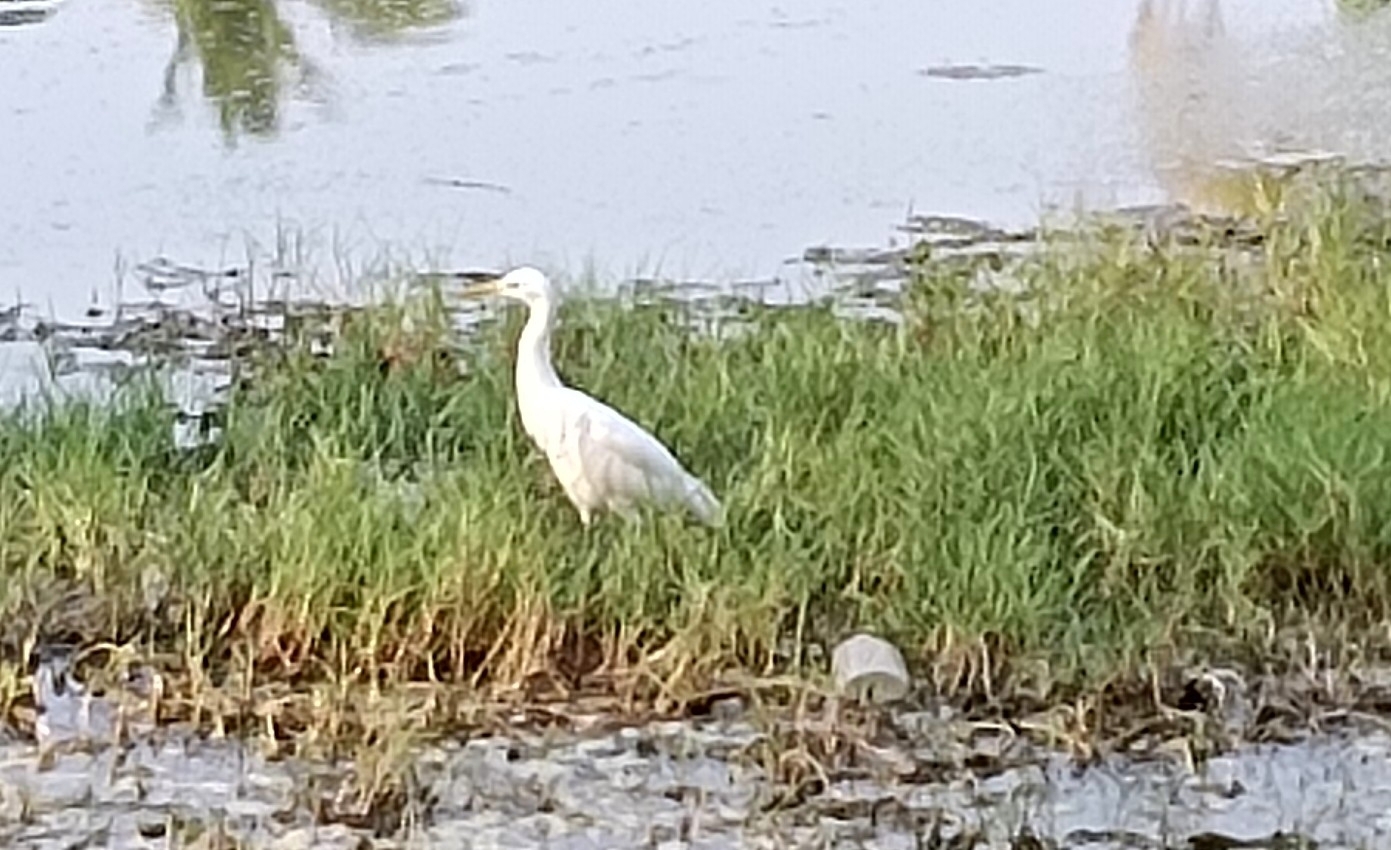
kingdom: Animalia
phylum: Chordata
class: Aves
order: Pelecaniformes
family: Ardeidae
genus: Bubulcus
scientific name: Bubulcus coromandus
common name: Eastern cattle egret
